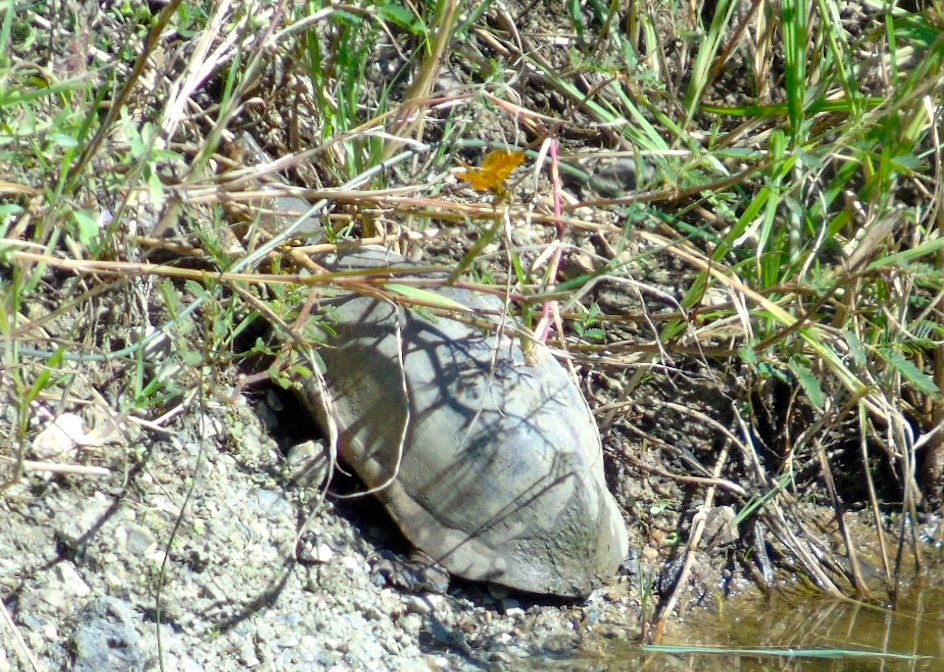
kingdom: Animalia
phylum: Chordata
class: Testudines
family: Kinosternidae
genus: Kinosternon
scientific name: Kinosternon integrum
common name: Mexican mud turtle
